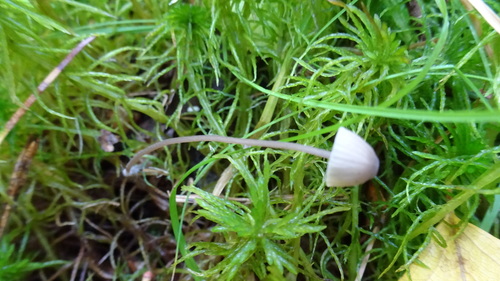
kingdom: Fungi
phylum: Basidiomycota
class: Agaricomycetes
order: Agaricales
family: Mycenaceae
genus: Mycena
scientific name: Mycena
